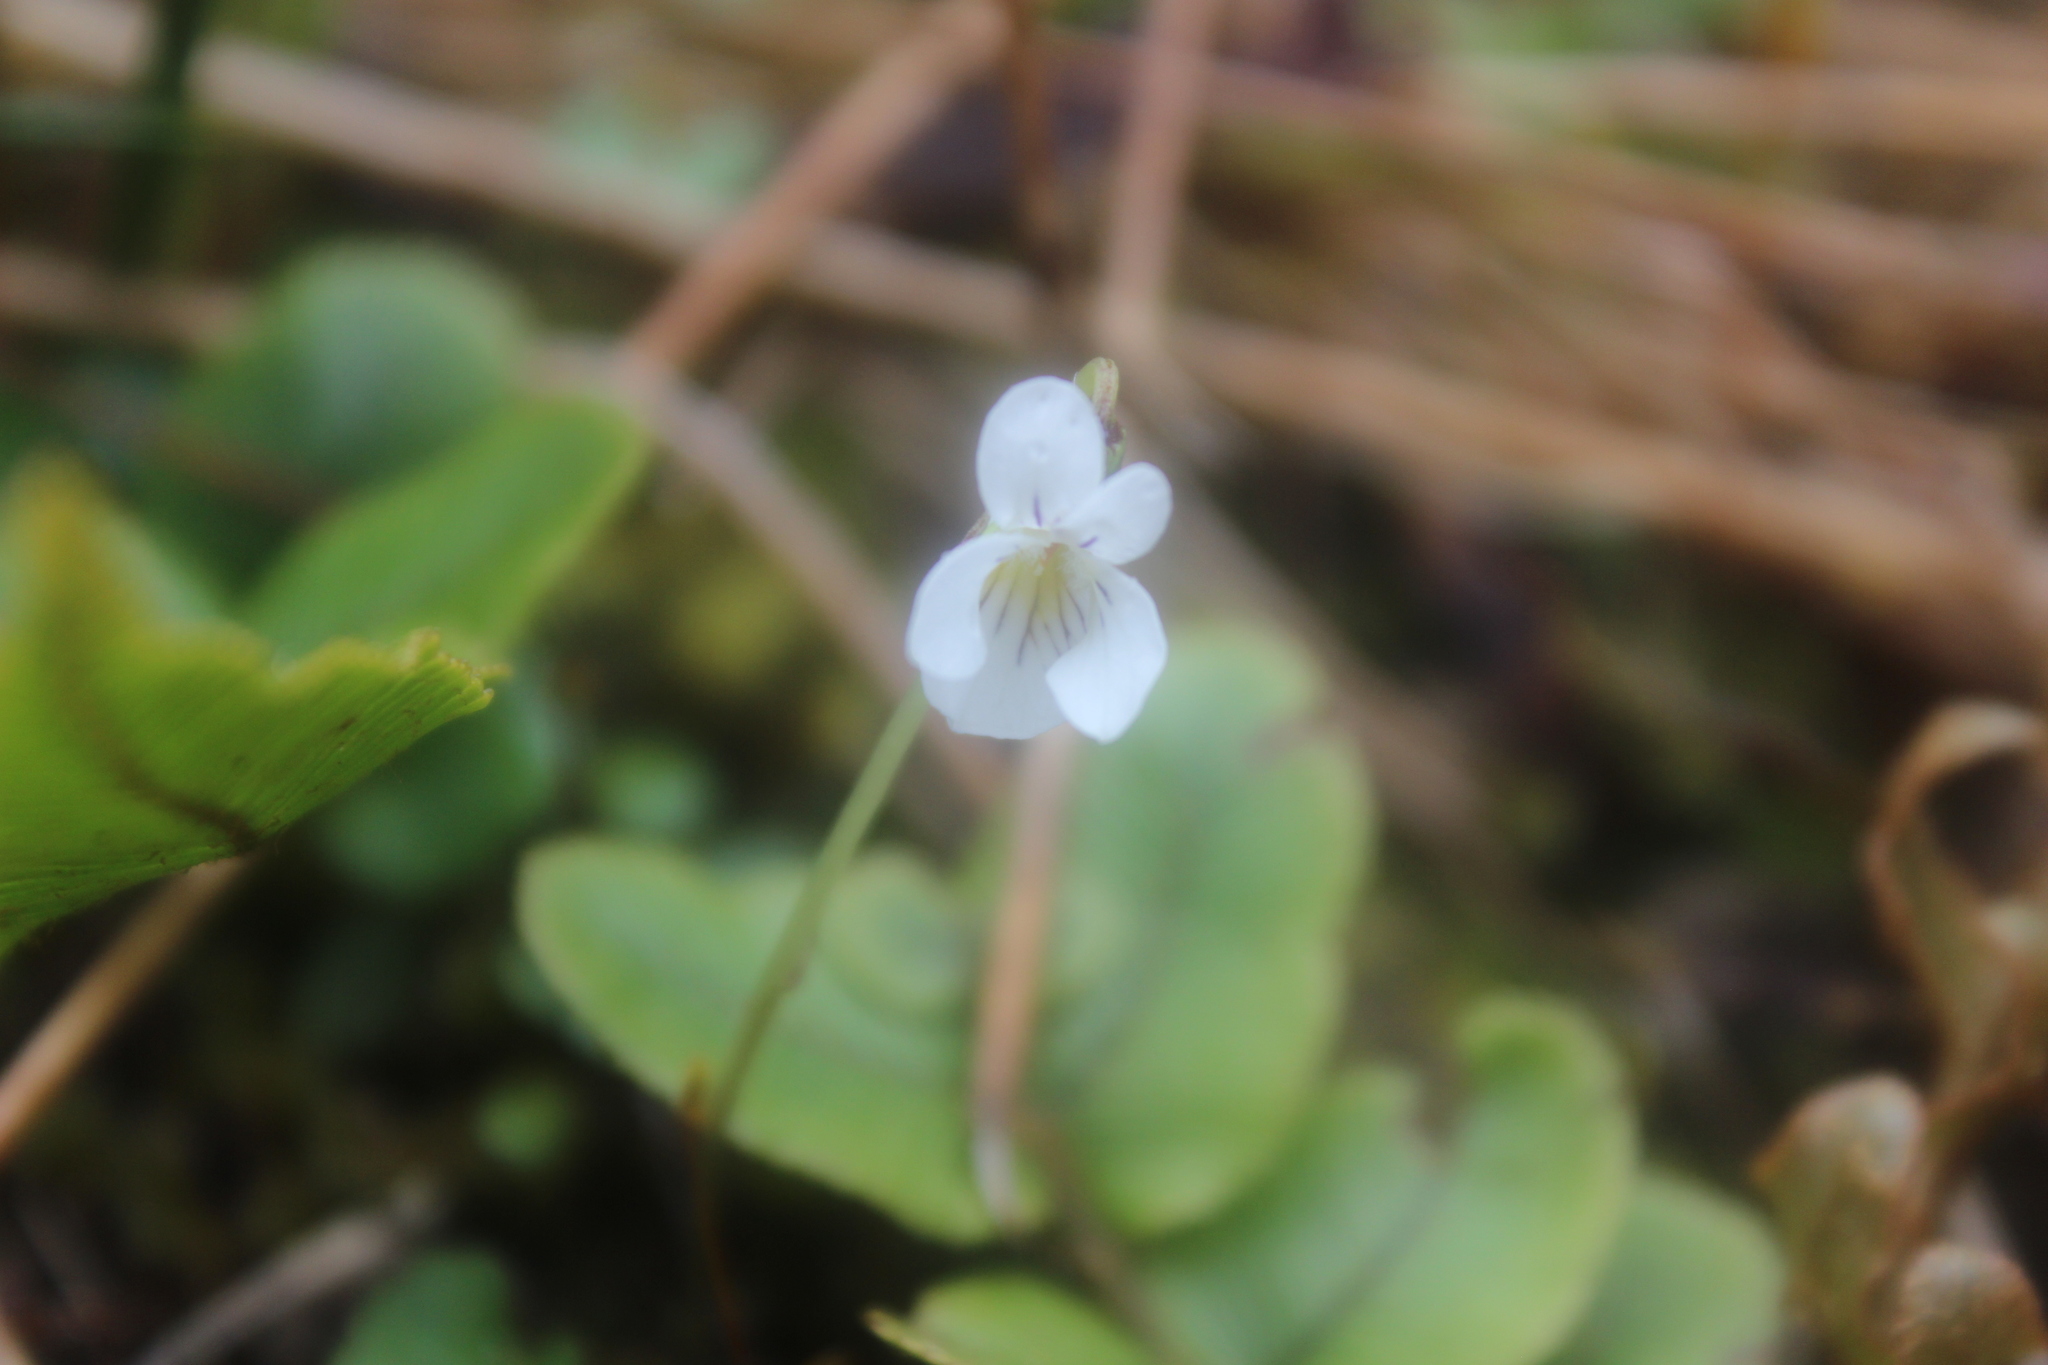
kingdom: Plantae
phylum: Tracheophyta
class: Magnoliopsida
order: Malpighiales
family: Violaceae
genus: Viola
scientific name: Viola cunninghamii
